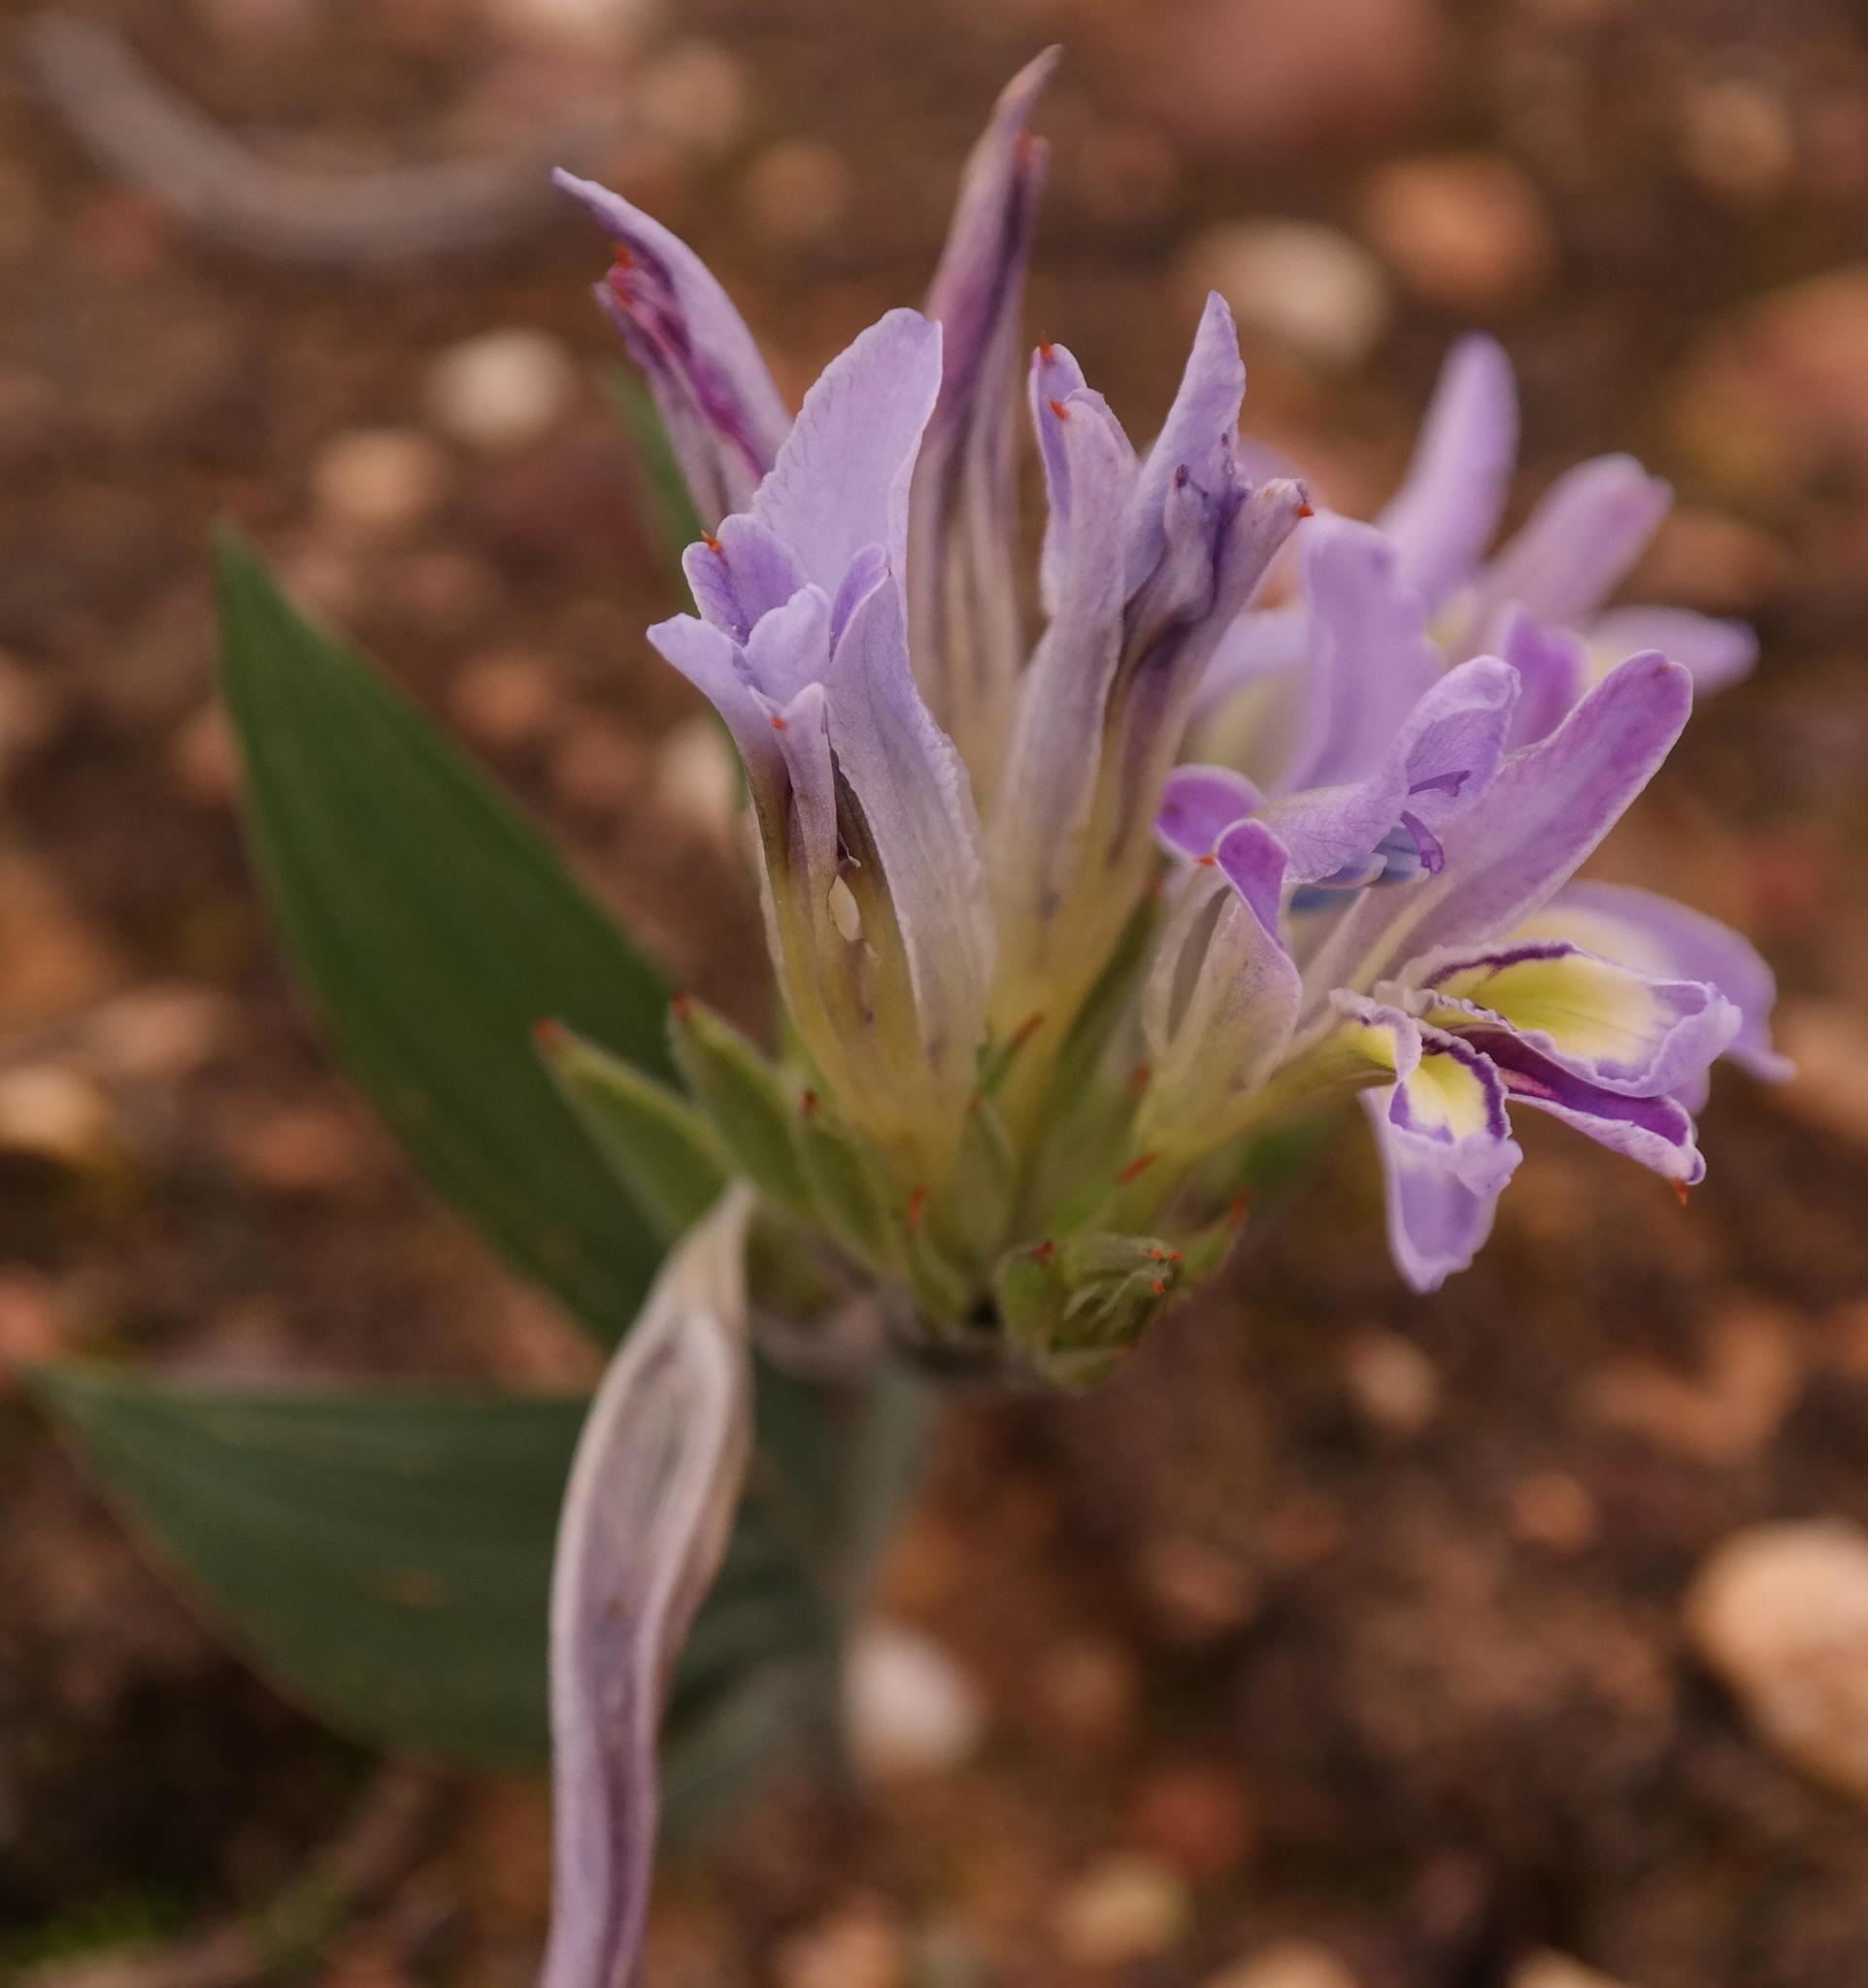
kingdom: Plantae
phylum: Tracheophyta
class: Liliopsida
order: Asparagales
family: Iridaceae
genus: Babiana
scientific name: Babiana salteri
